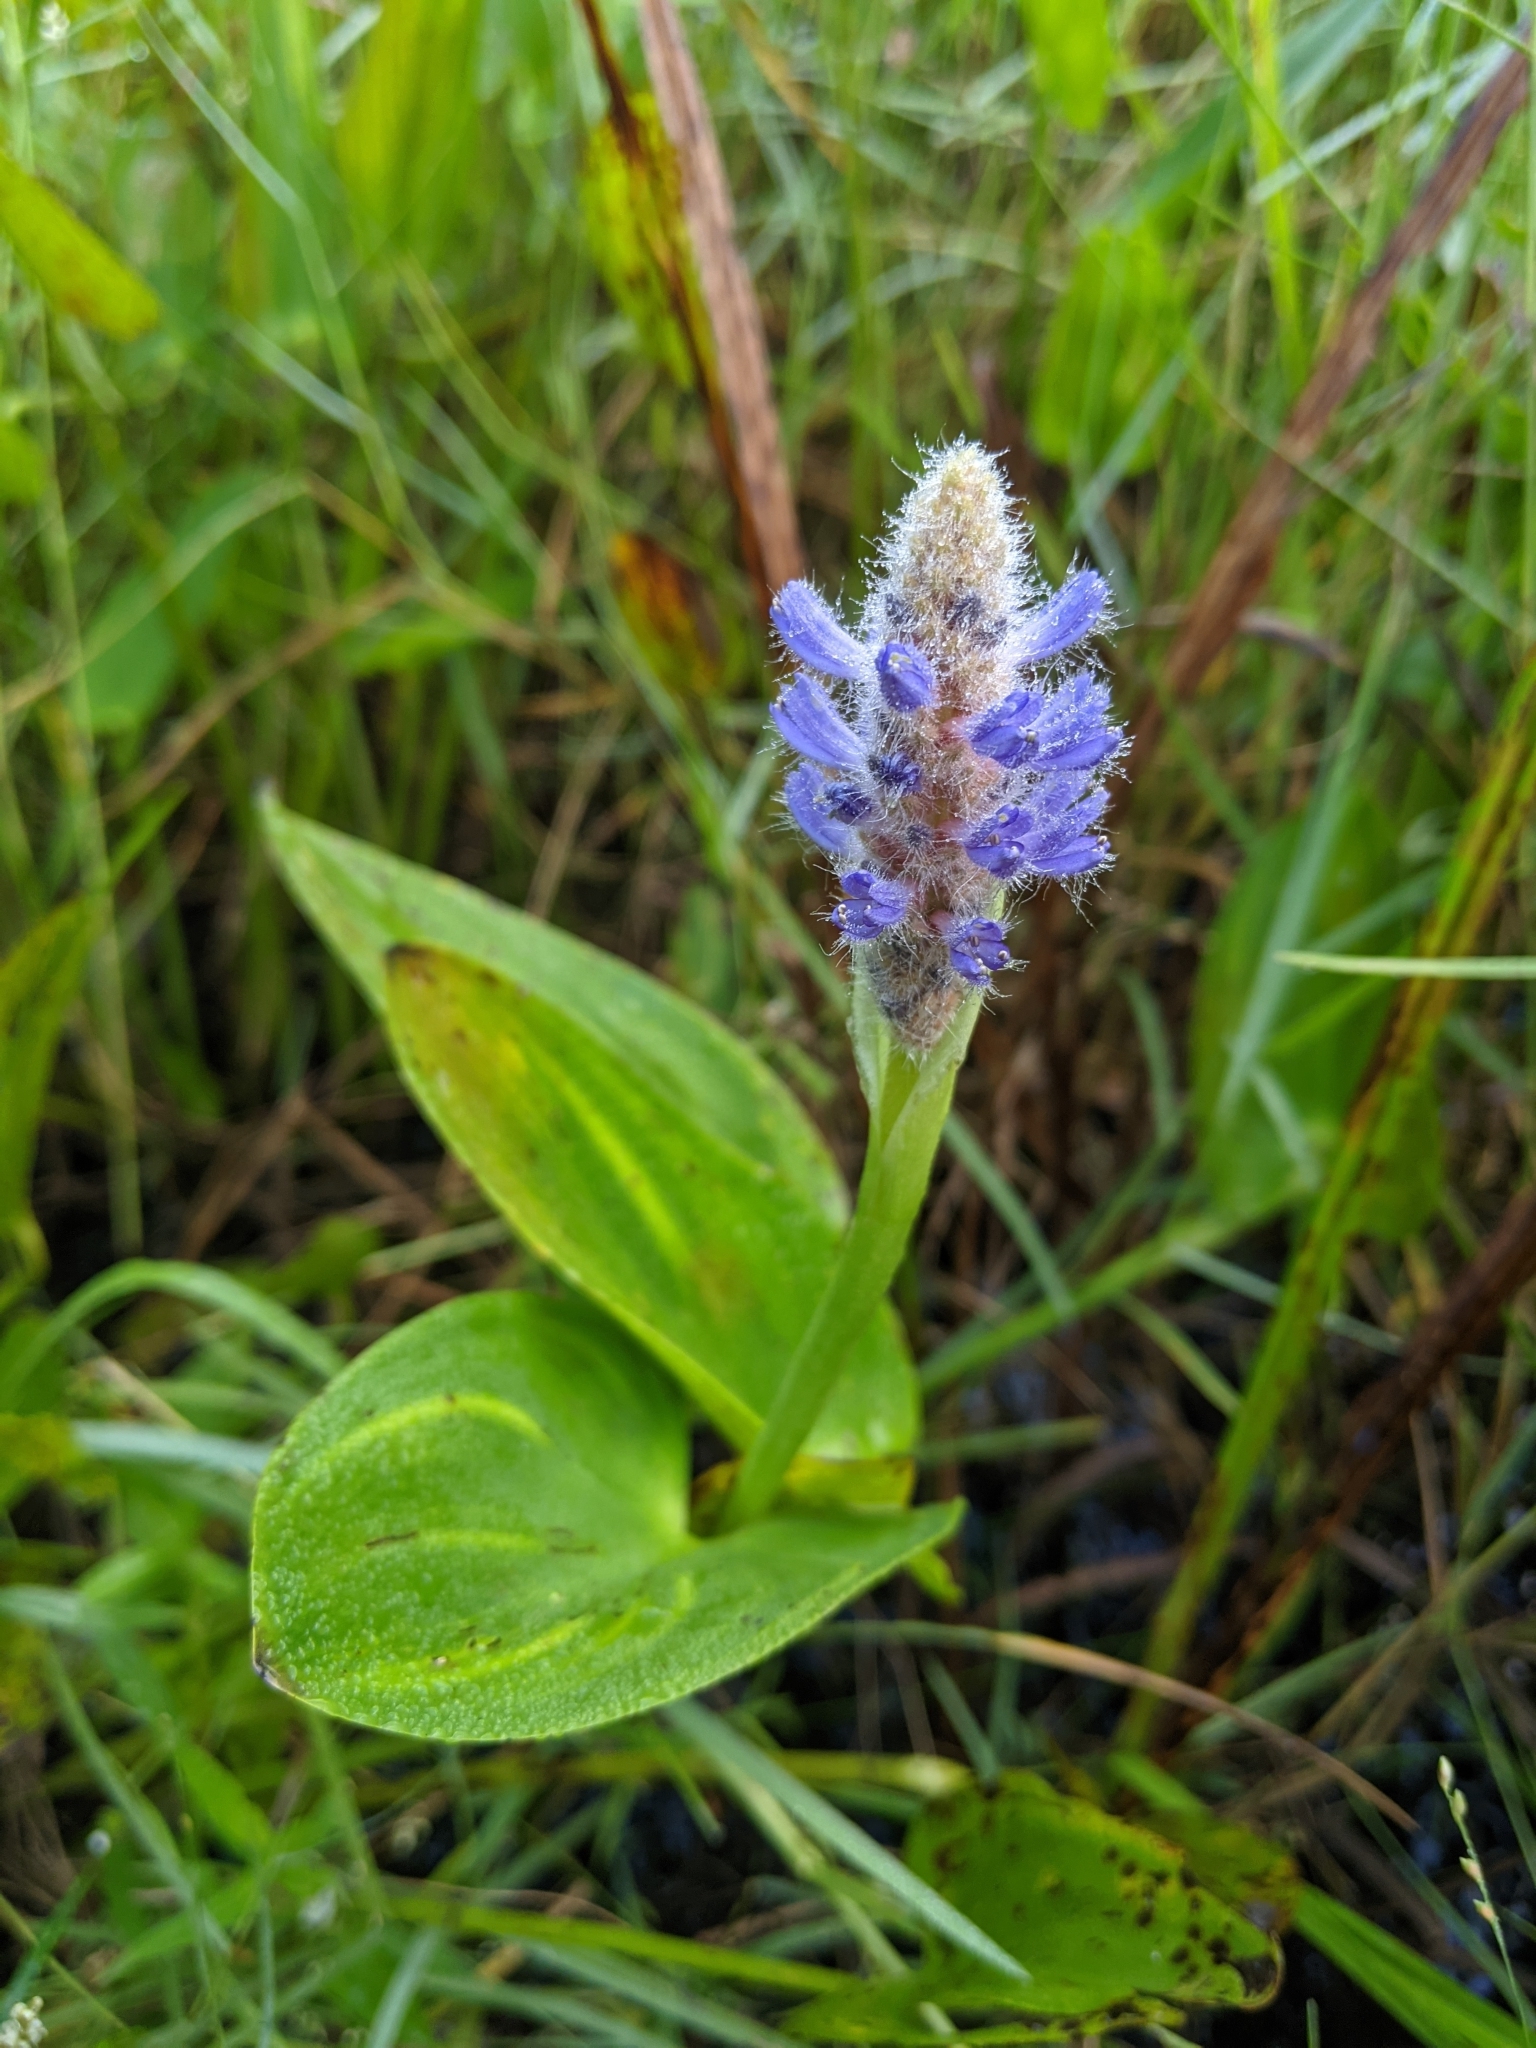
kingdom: Plantae
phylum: Tracheophyta
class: Liliopsida
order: Commelinales
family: Pontederiaceae
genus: Pontederia
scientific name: Pontederia cordata
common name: Pickerelweed
